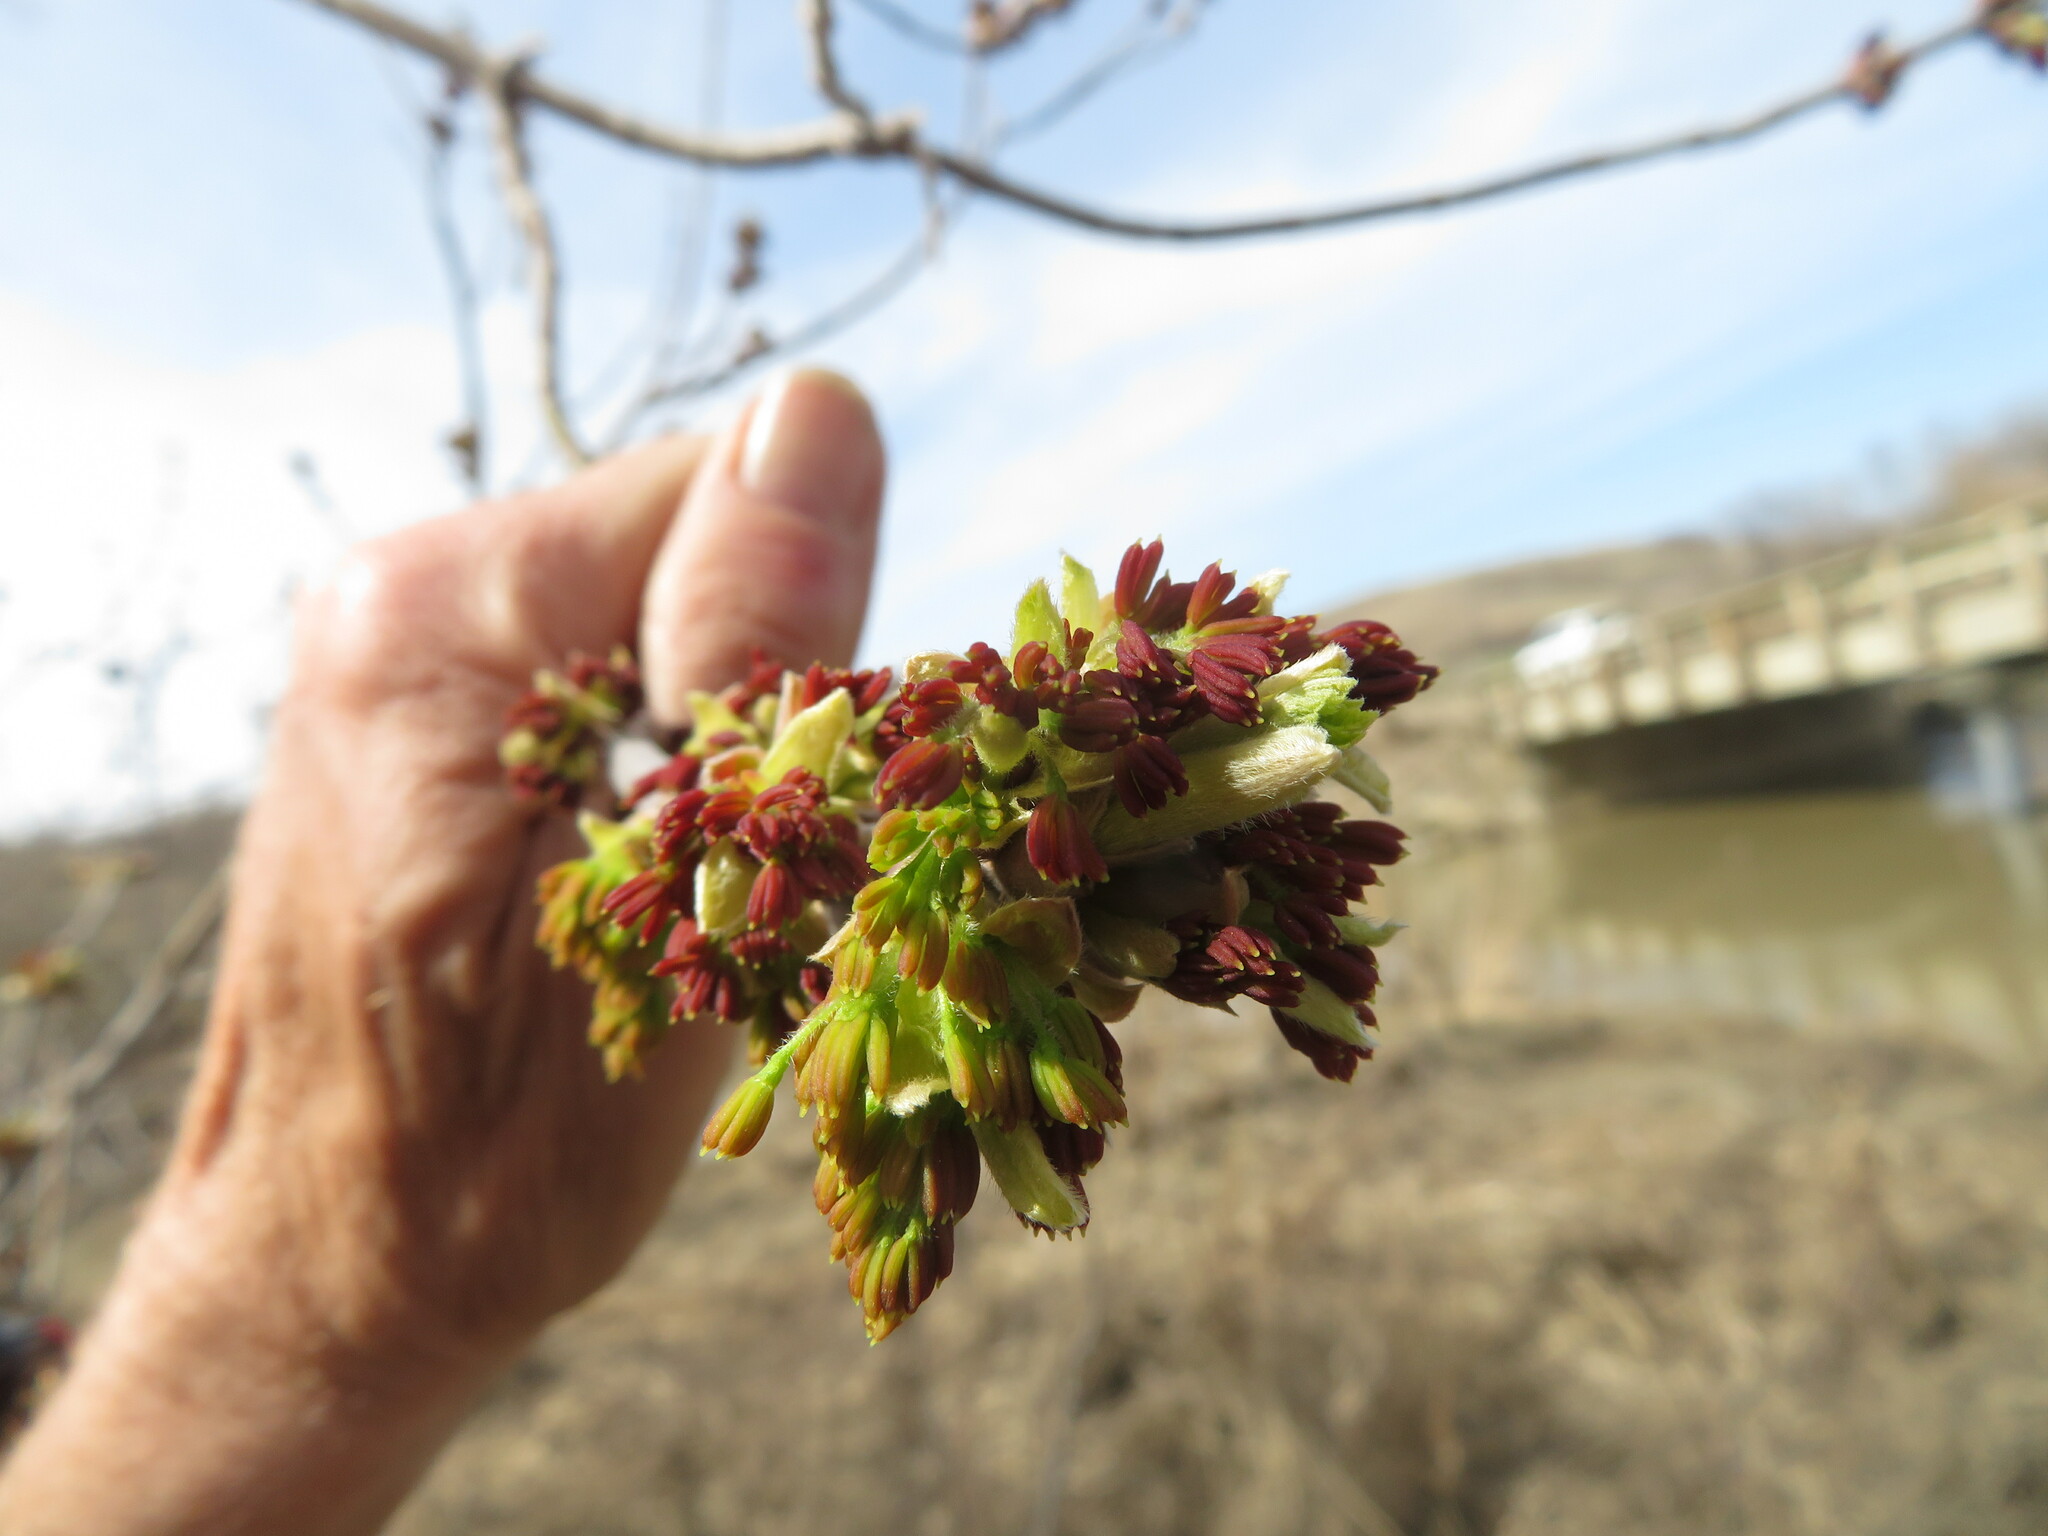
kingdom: Plantae
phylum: Tracheophyta
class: Magnoliopsida
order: Sapindales
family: Sapindaceae
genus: Acer
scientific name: Acer negundo
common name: Ashleaf maple
